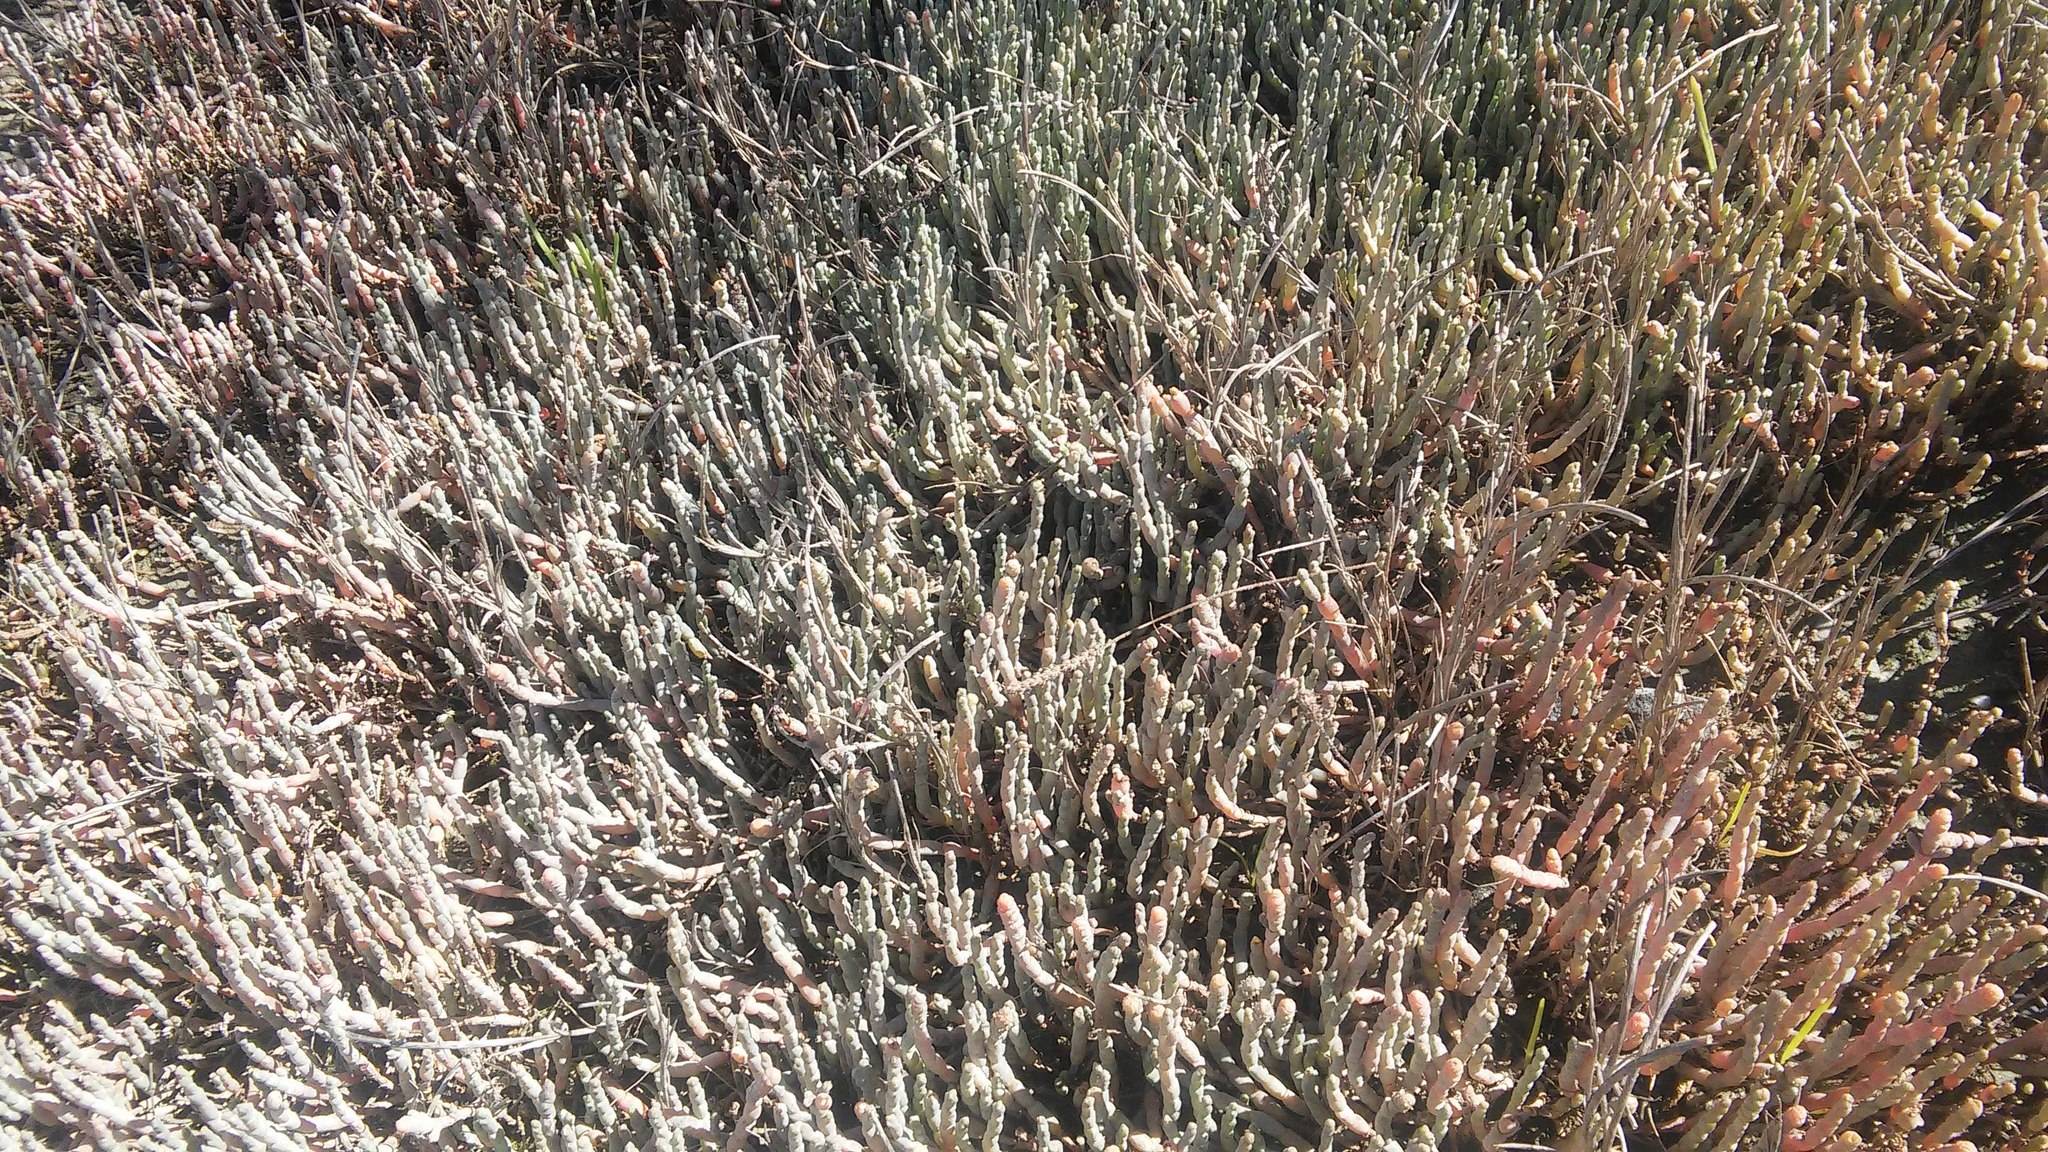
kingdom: Plantae
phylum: Tracheophyta
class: Magnoliopsida
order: Caryophyllales
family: Amaranthaceae
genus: Salicornia
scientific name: Salicornia quinqueflora
